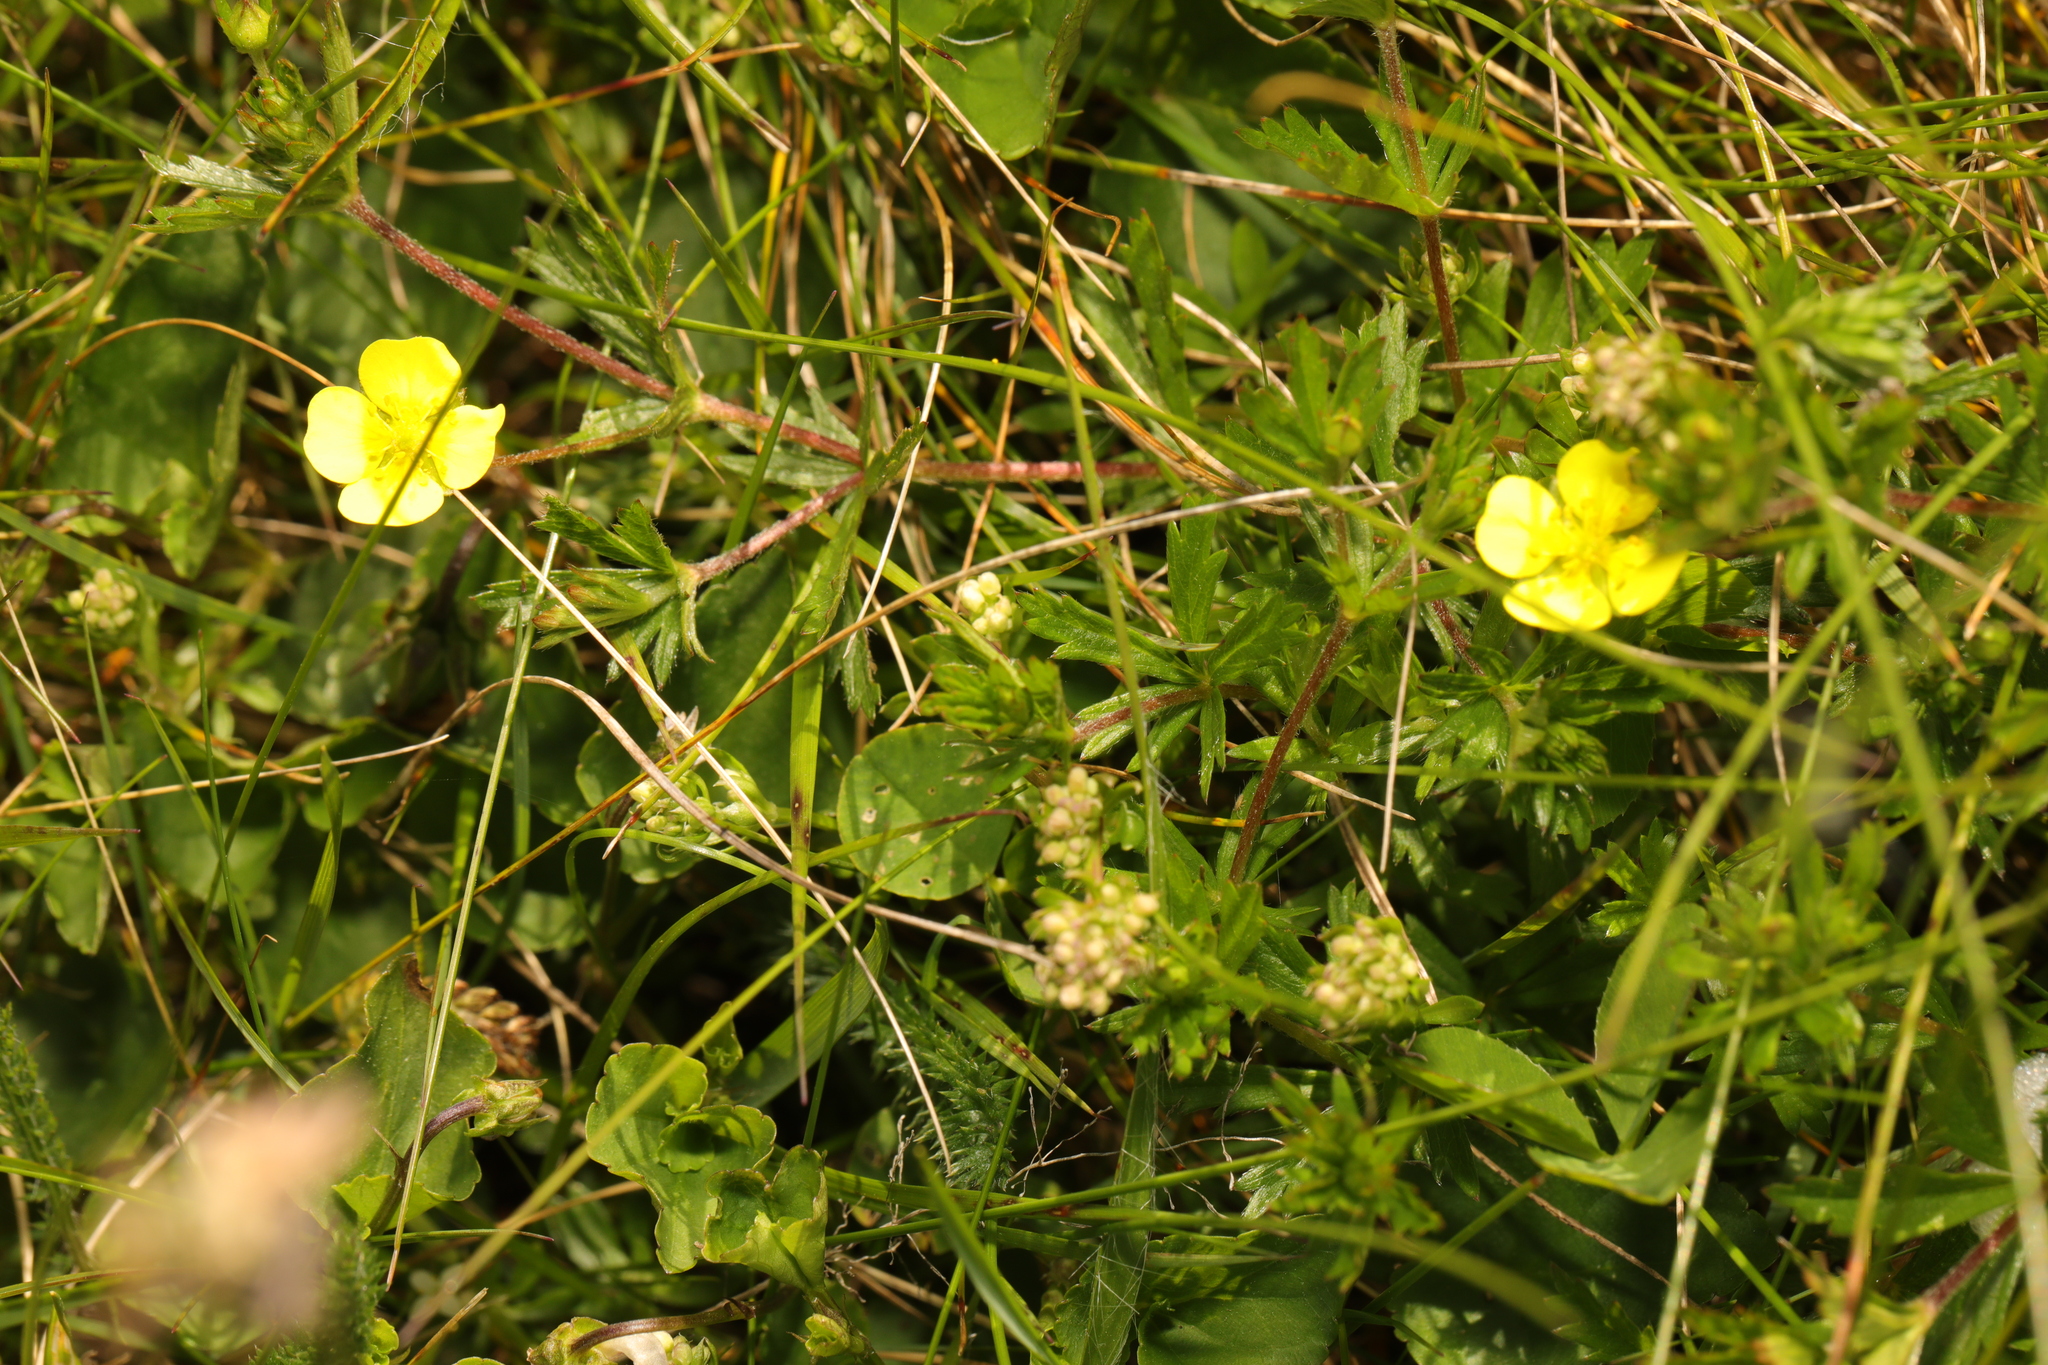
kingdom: Plantae
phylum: Tracheophyta
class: Magnoliopsida
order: Rosales
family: Rosaceae
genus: Potentilla
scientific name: Potentilla erecta
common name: Tormentil
